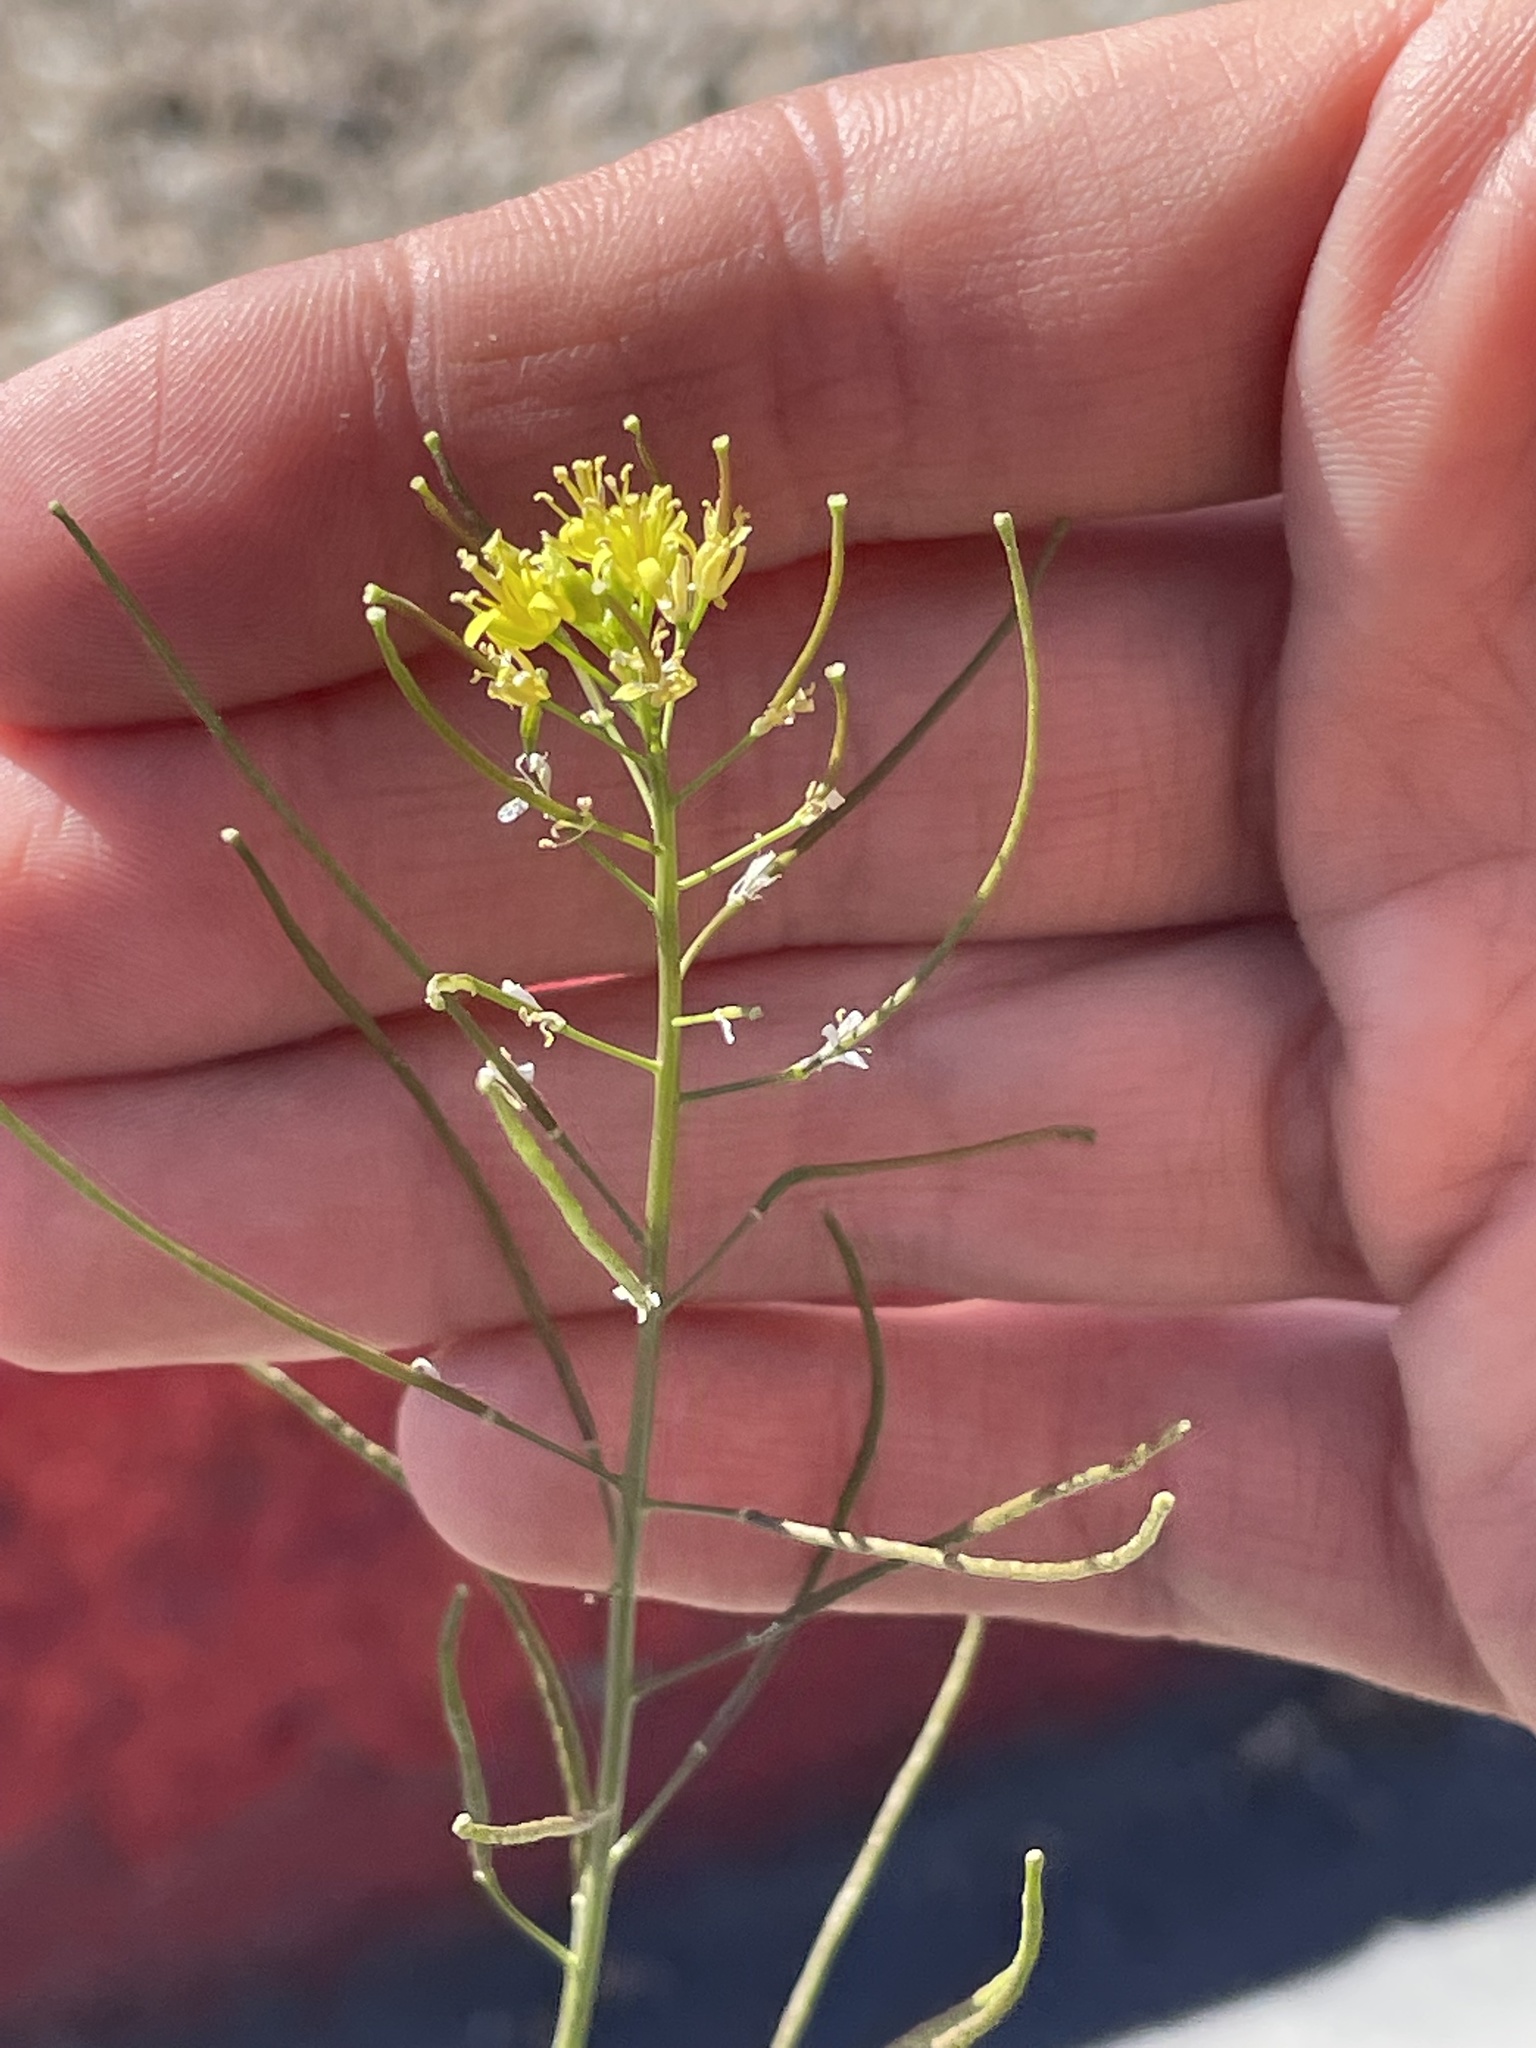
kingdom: Plantae
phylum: Tracheophyta
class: Magnoliopsida
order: Brassicales
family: Brassicaceae
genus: Sisymbrium
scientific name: Sisymbrium irio
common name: London rocket
